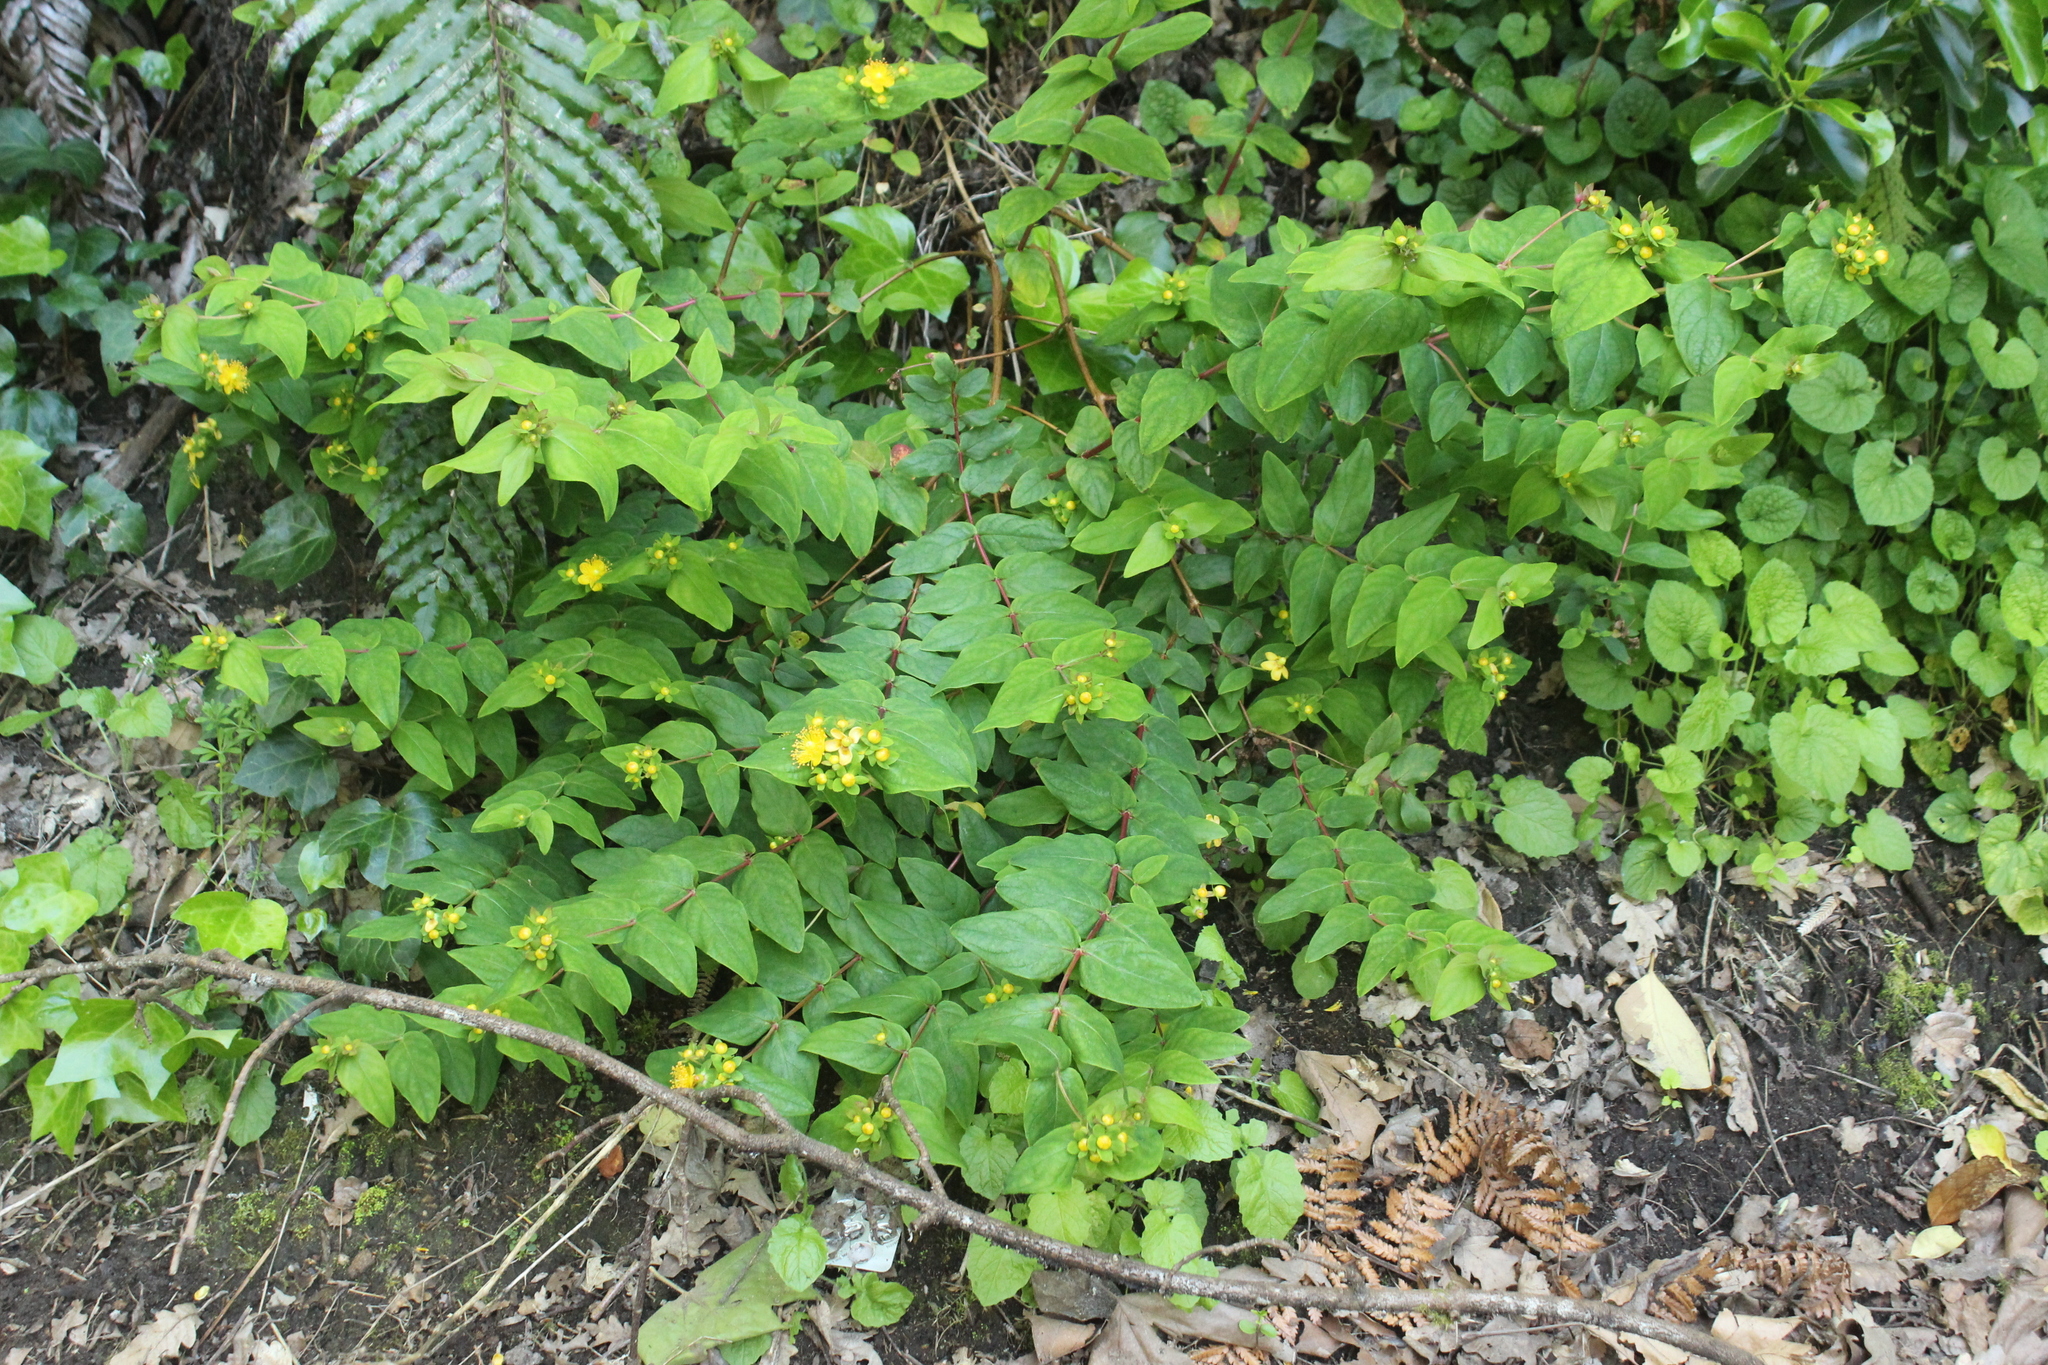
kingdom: Plantae
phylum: Tracheophyta
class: Magnoliopsida
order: Malpighiales
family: Hypericaceae
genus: Hypericum
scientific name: Hypericum androsaemum
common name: Sweet-amber
